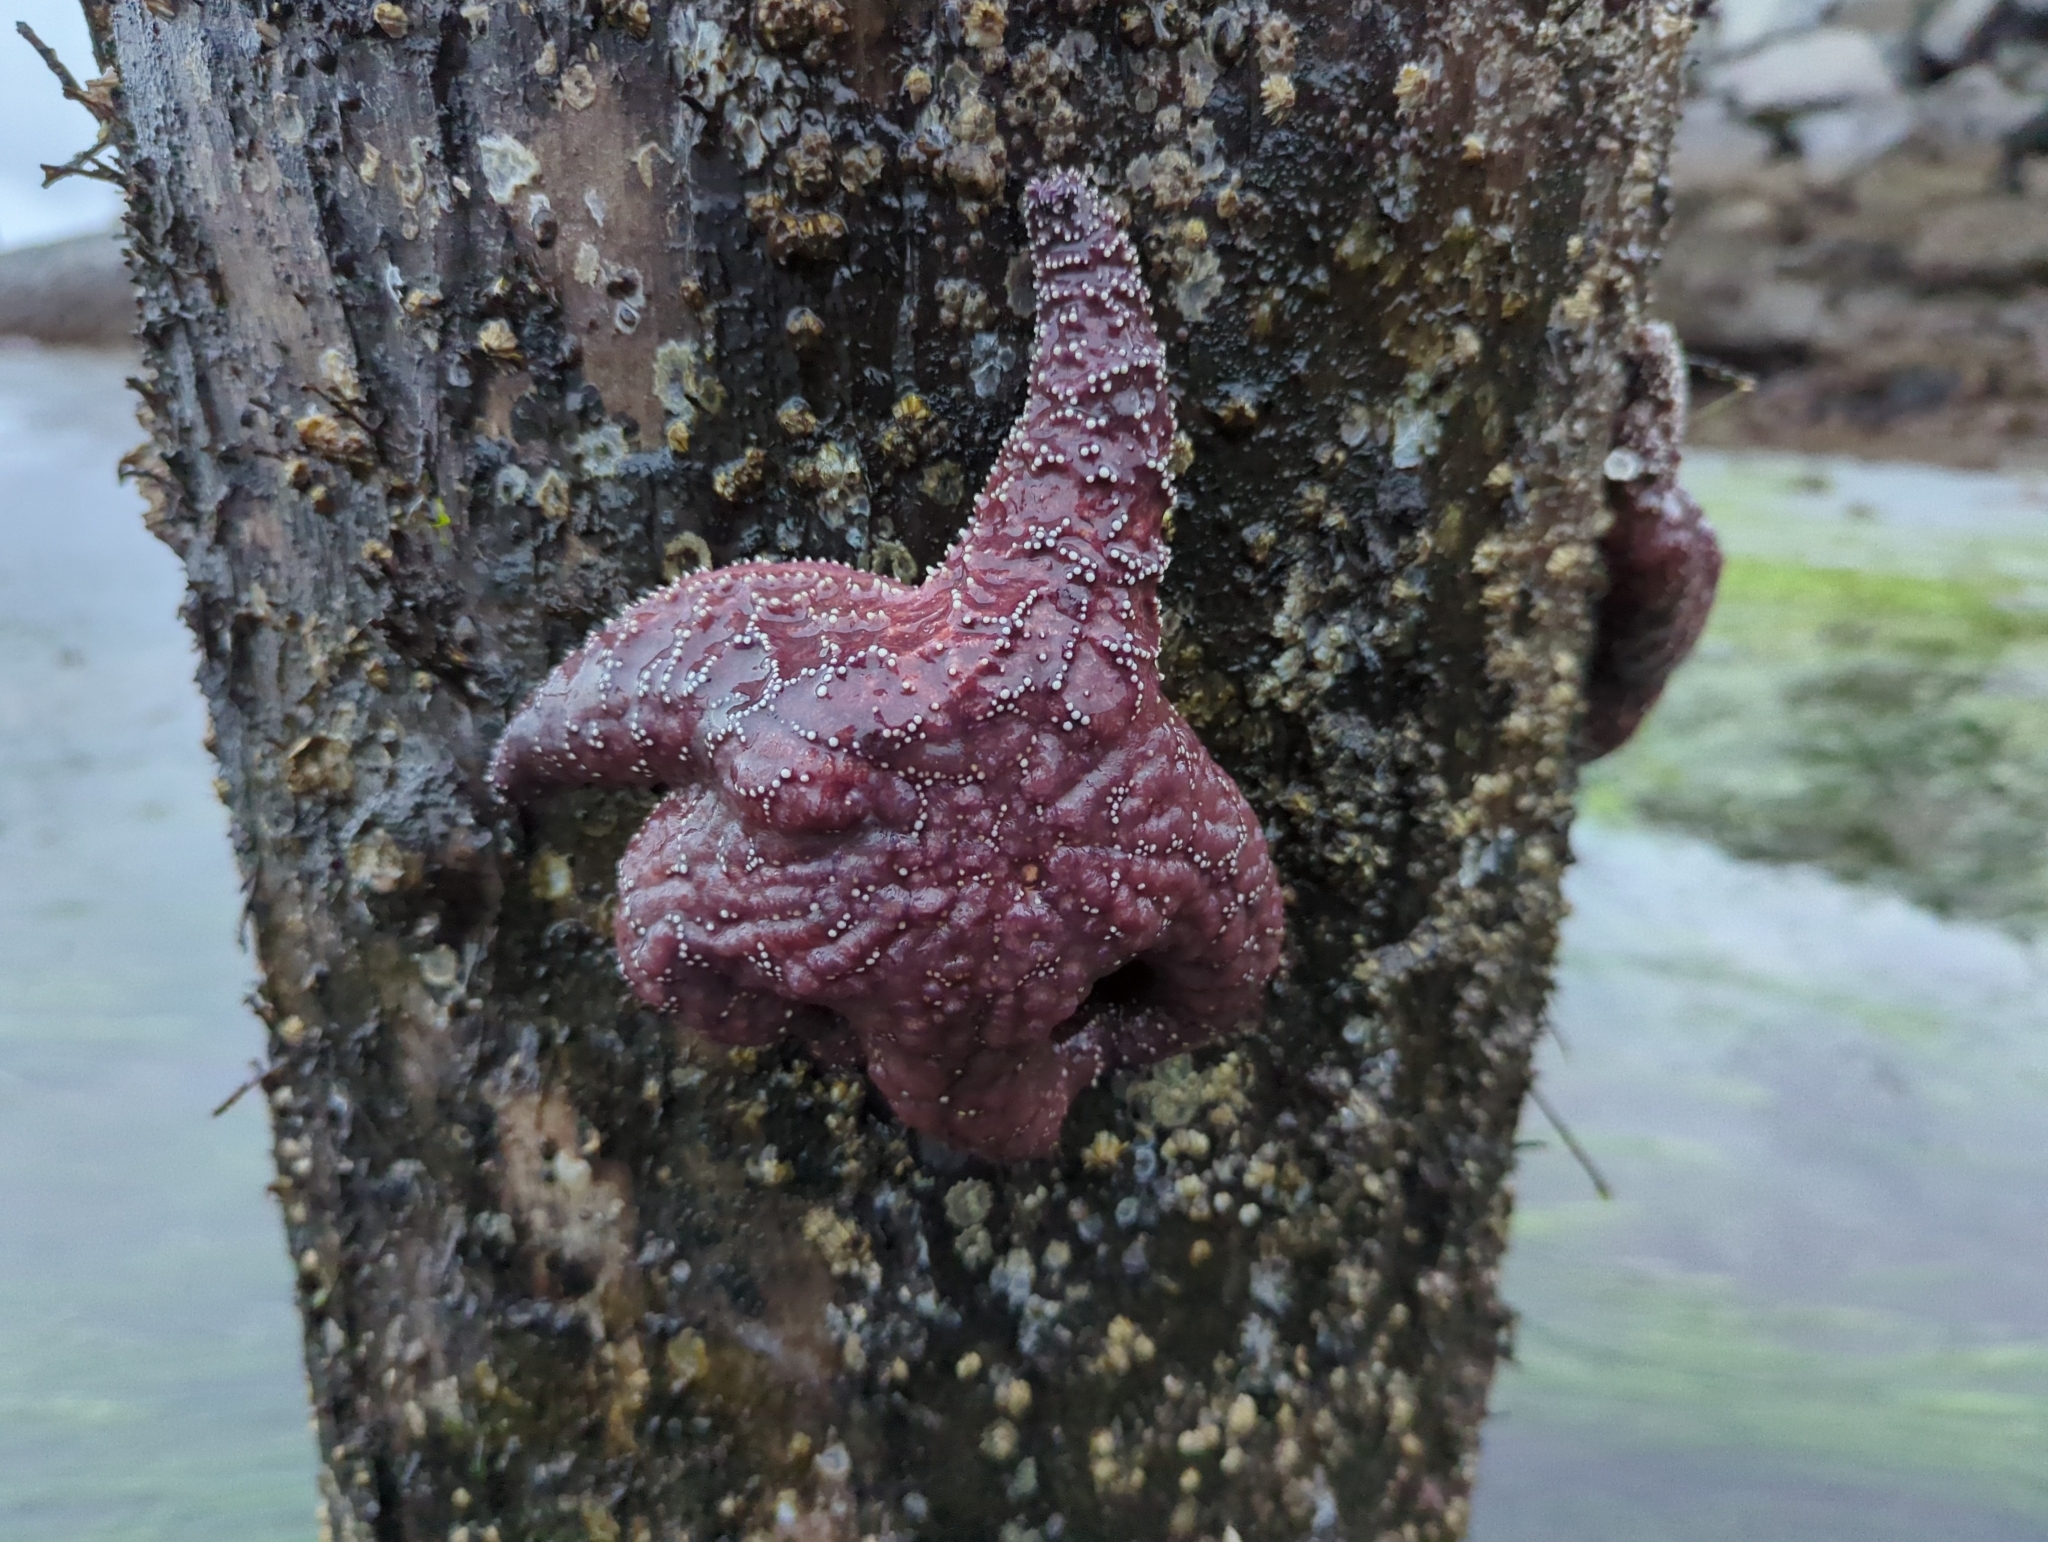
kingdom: Animalia
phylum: Echinodermata
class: Asteroidea
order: Forcipulatida
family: Asteriidae
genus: Pisaster
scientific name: Pisaster ochraceus
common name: Ochre stars
